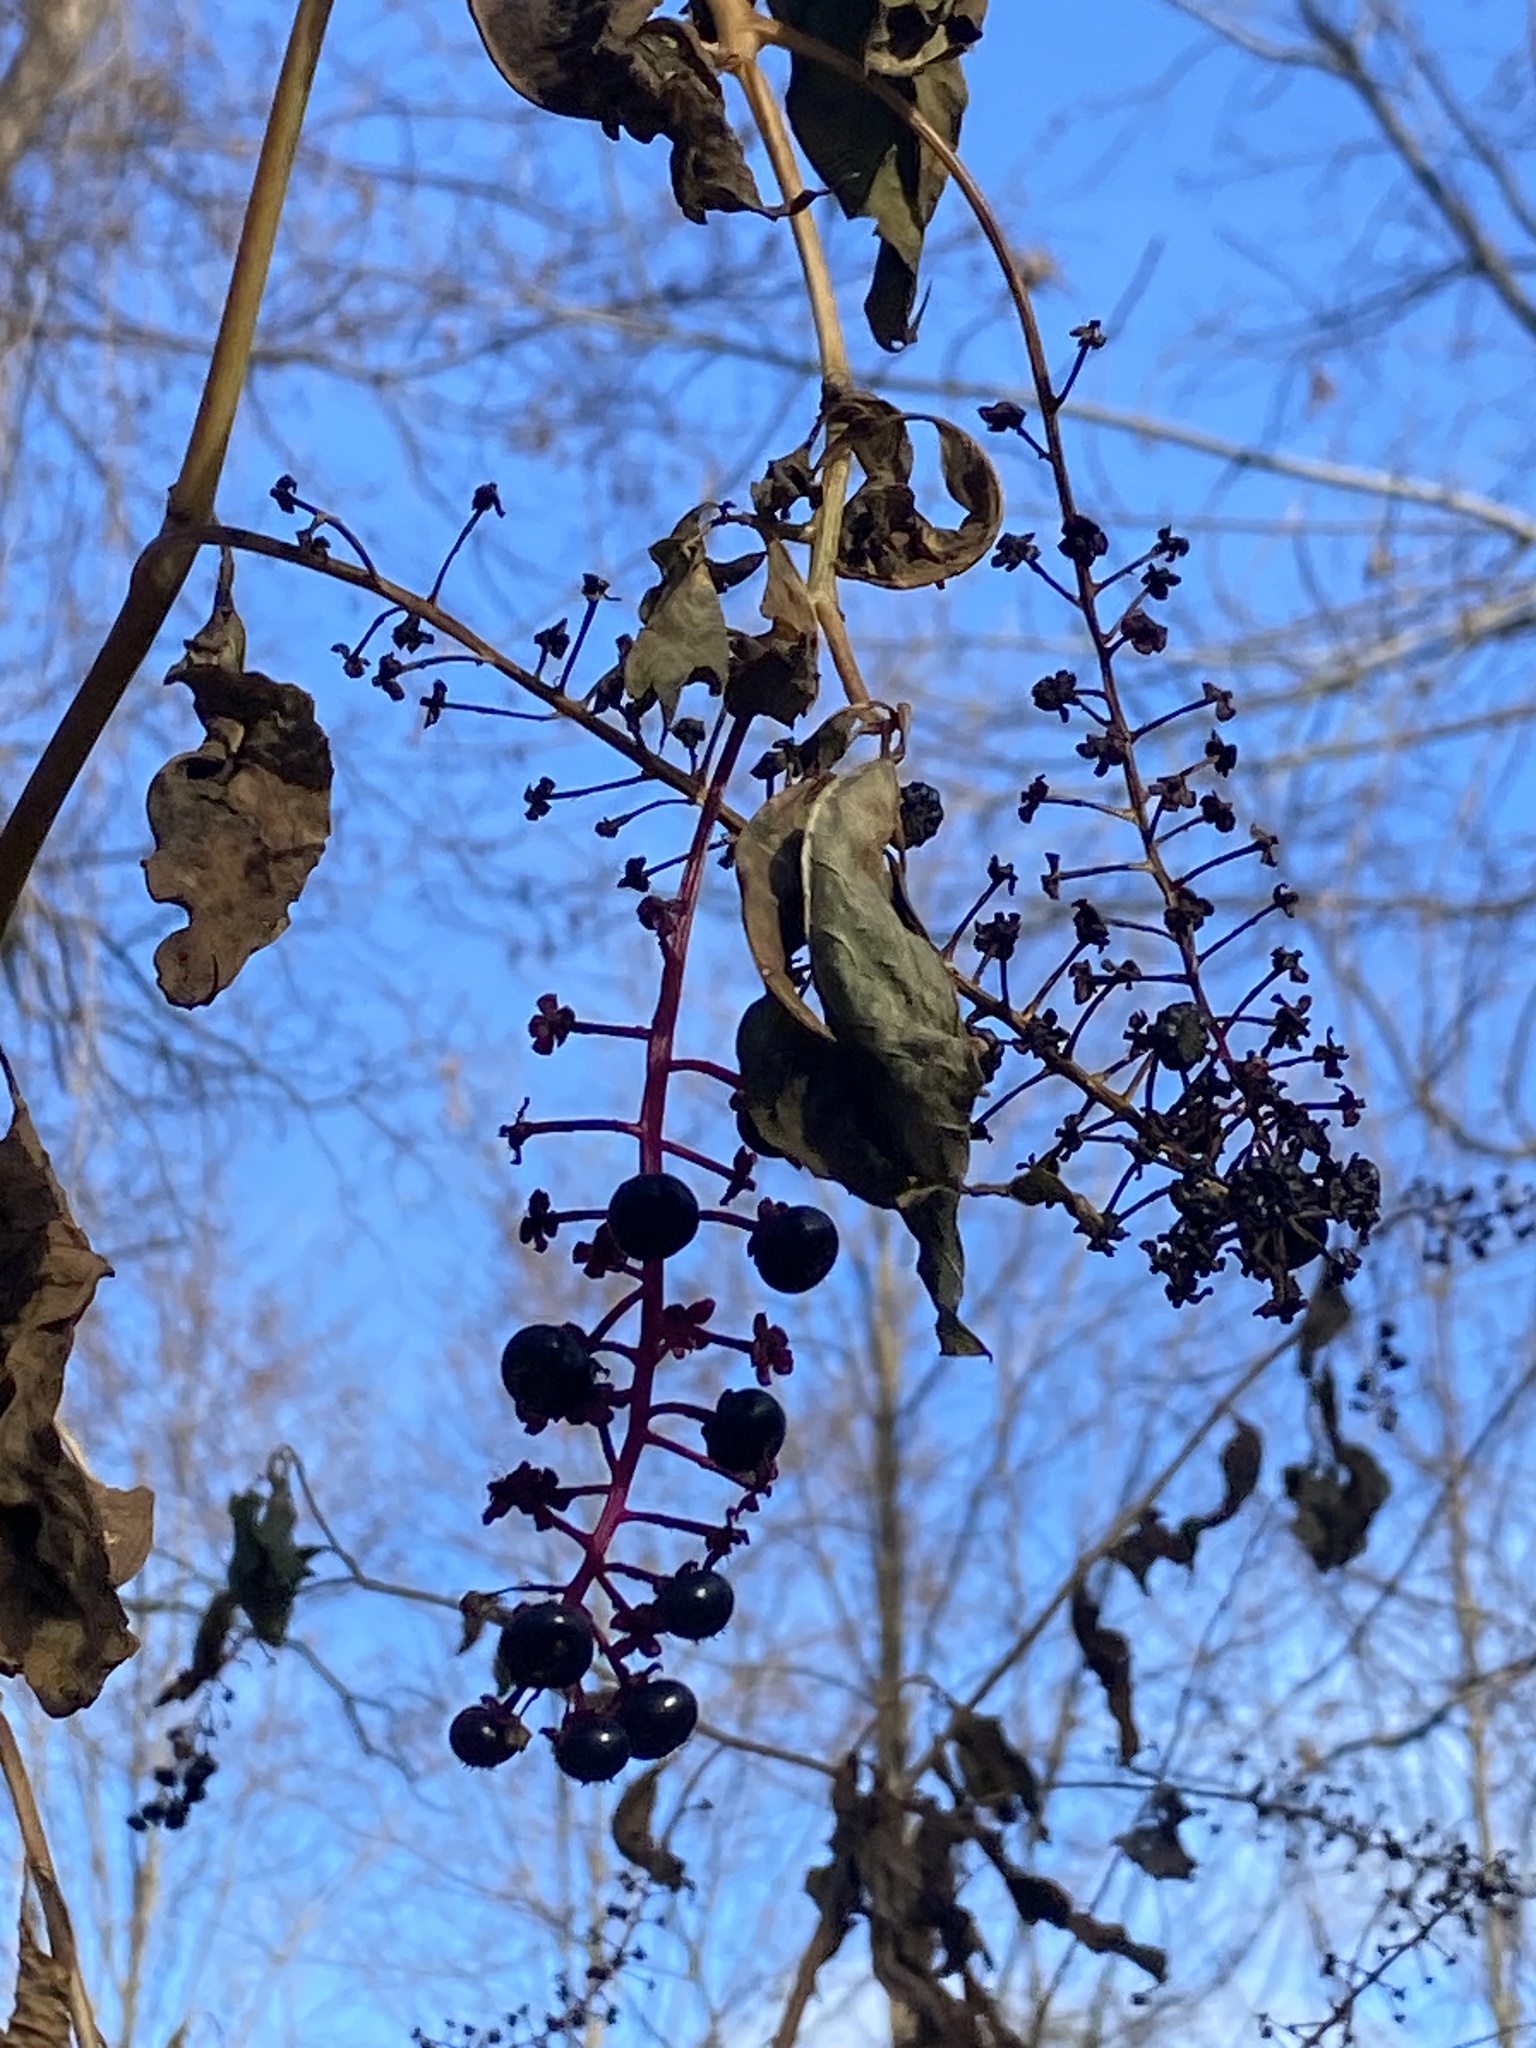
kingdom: Plantae
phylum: Tracheophyta
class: Magnoliopsida
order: Caryophyllales
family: Phytolaccaceae
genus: Phytolacca
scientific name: Phytolacca americana
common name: American pokeweed
